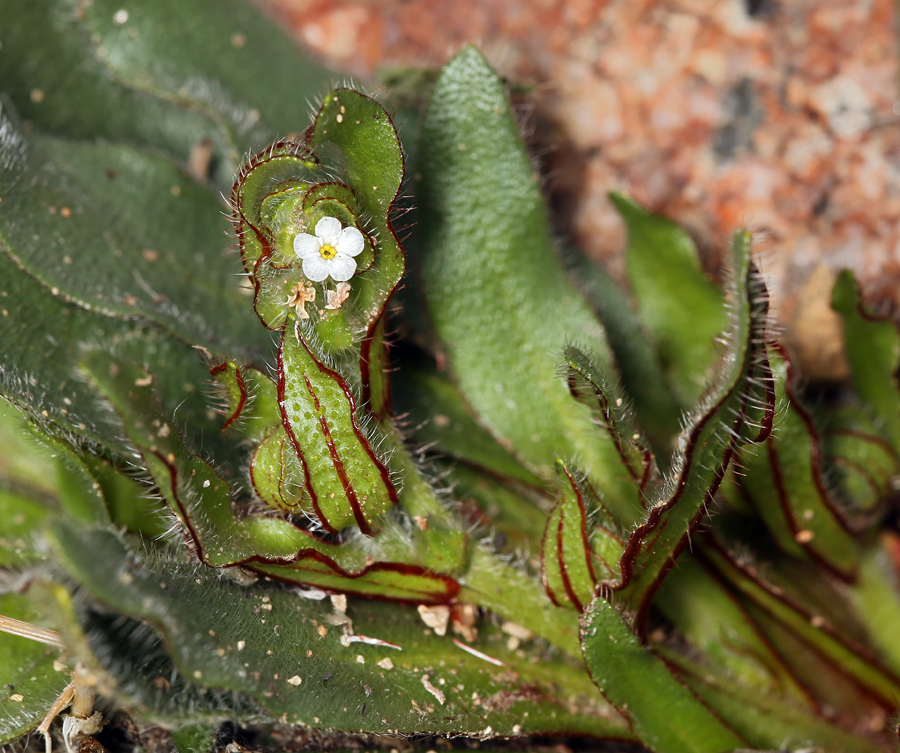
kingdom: Plantae
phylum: Tracheophyta
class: Magnoliopsida
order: Boraginales
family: Boraginaceae
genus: Plagiobothrys
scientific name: Plagiobothrys arizonicus
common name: Arizona popcorn-flower
